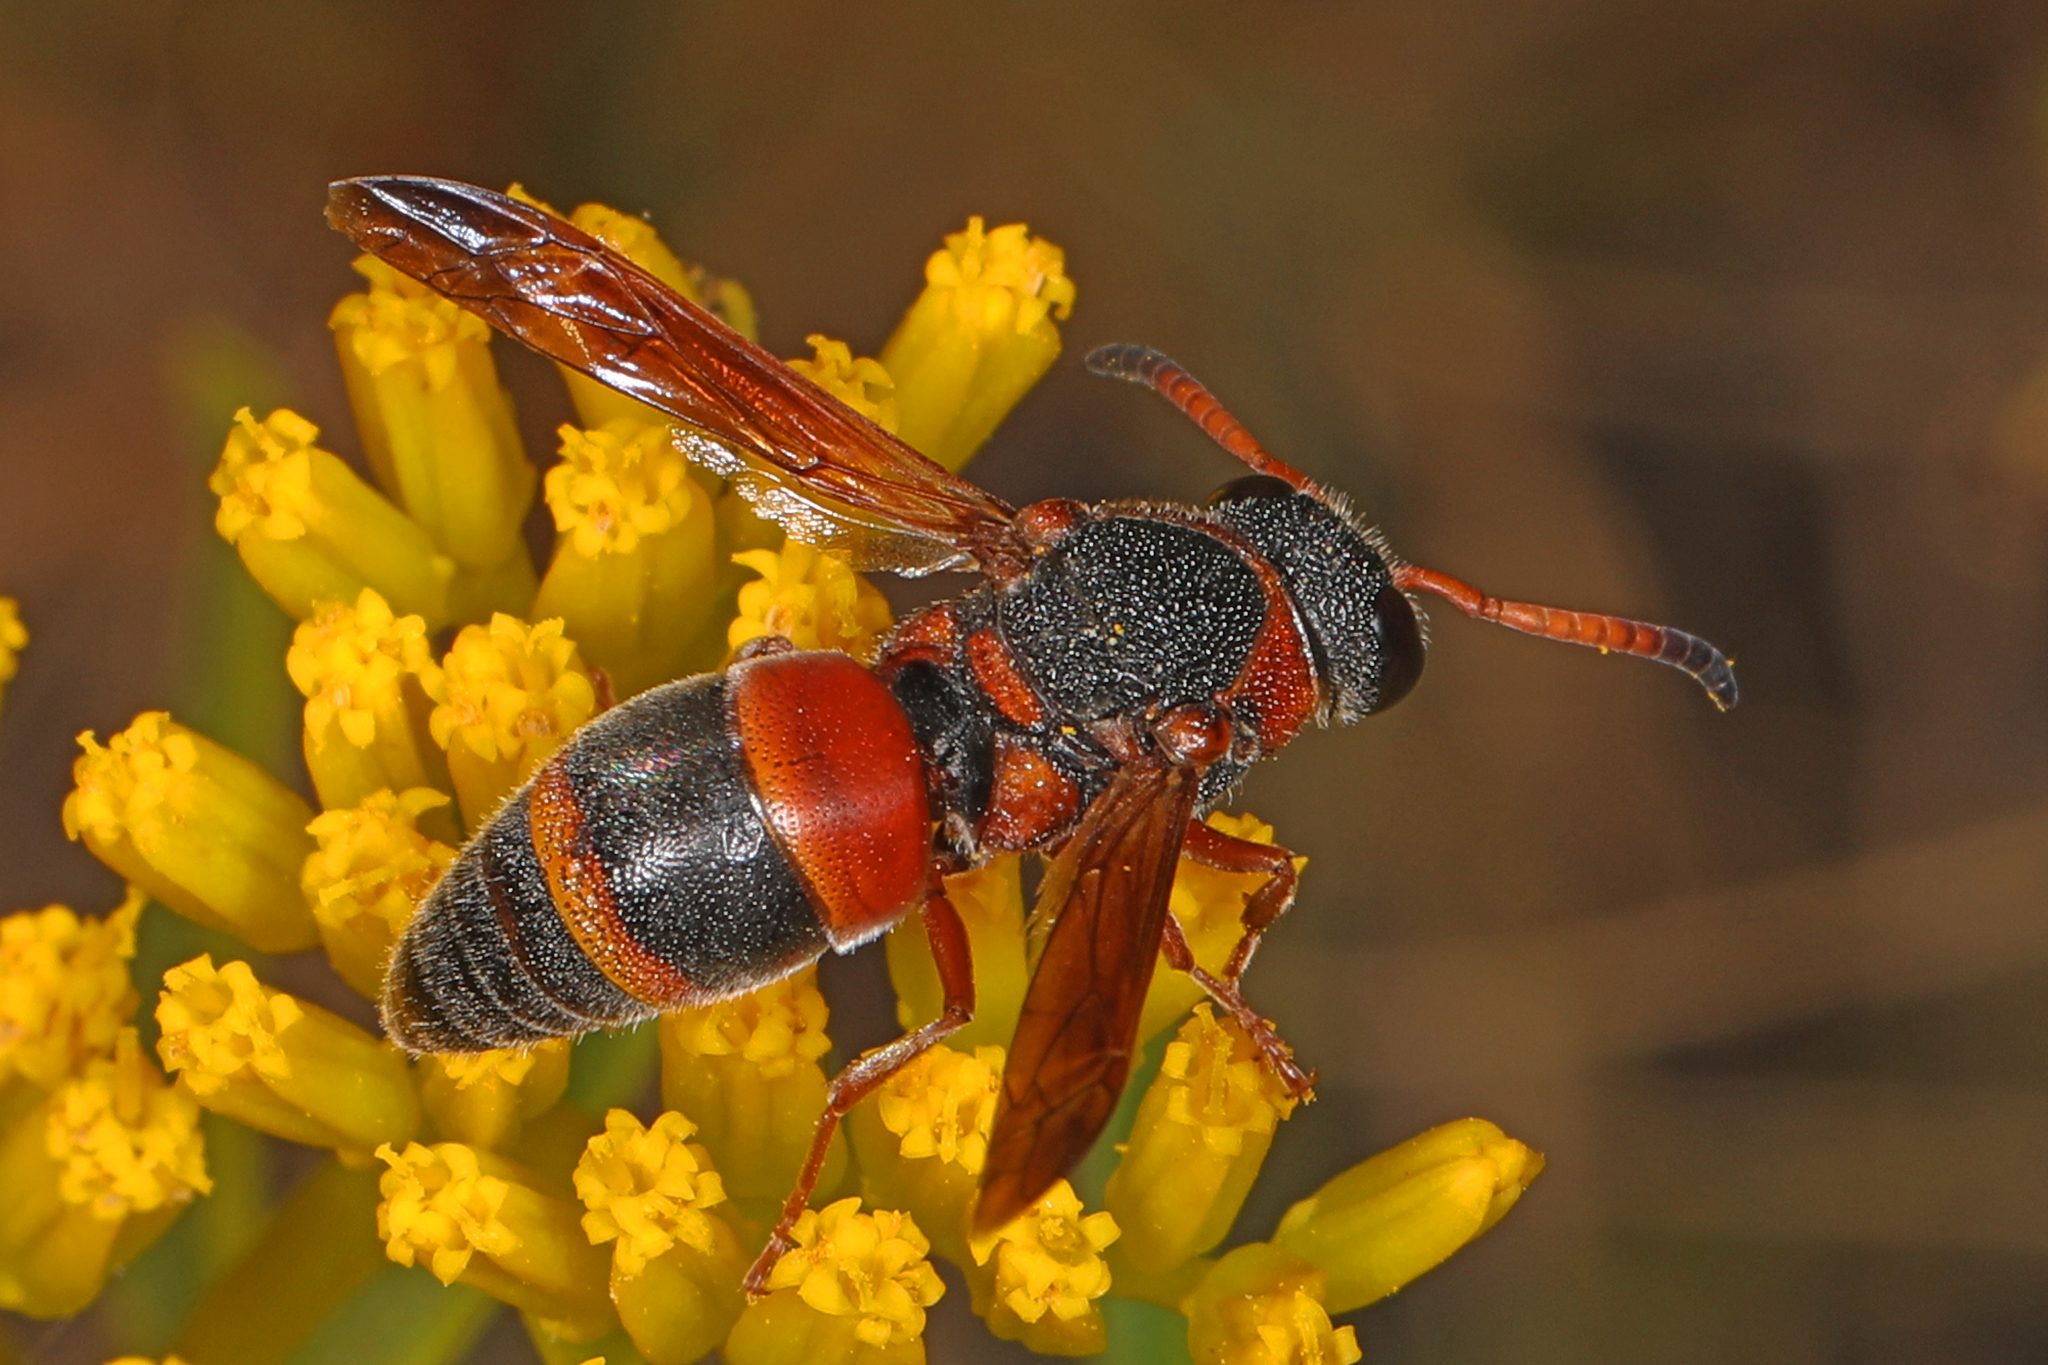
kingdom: Animalia
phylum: Arthropoda
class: Insecta
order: Hymenoptera
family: Eumenidae
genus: Pachodynerus
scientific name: Pachodynerus erynnis
